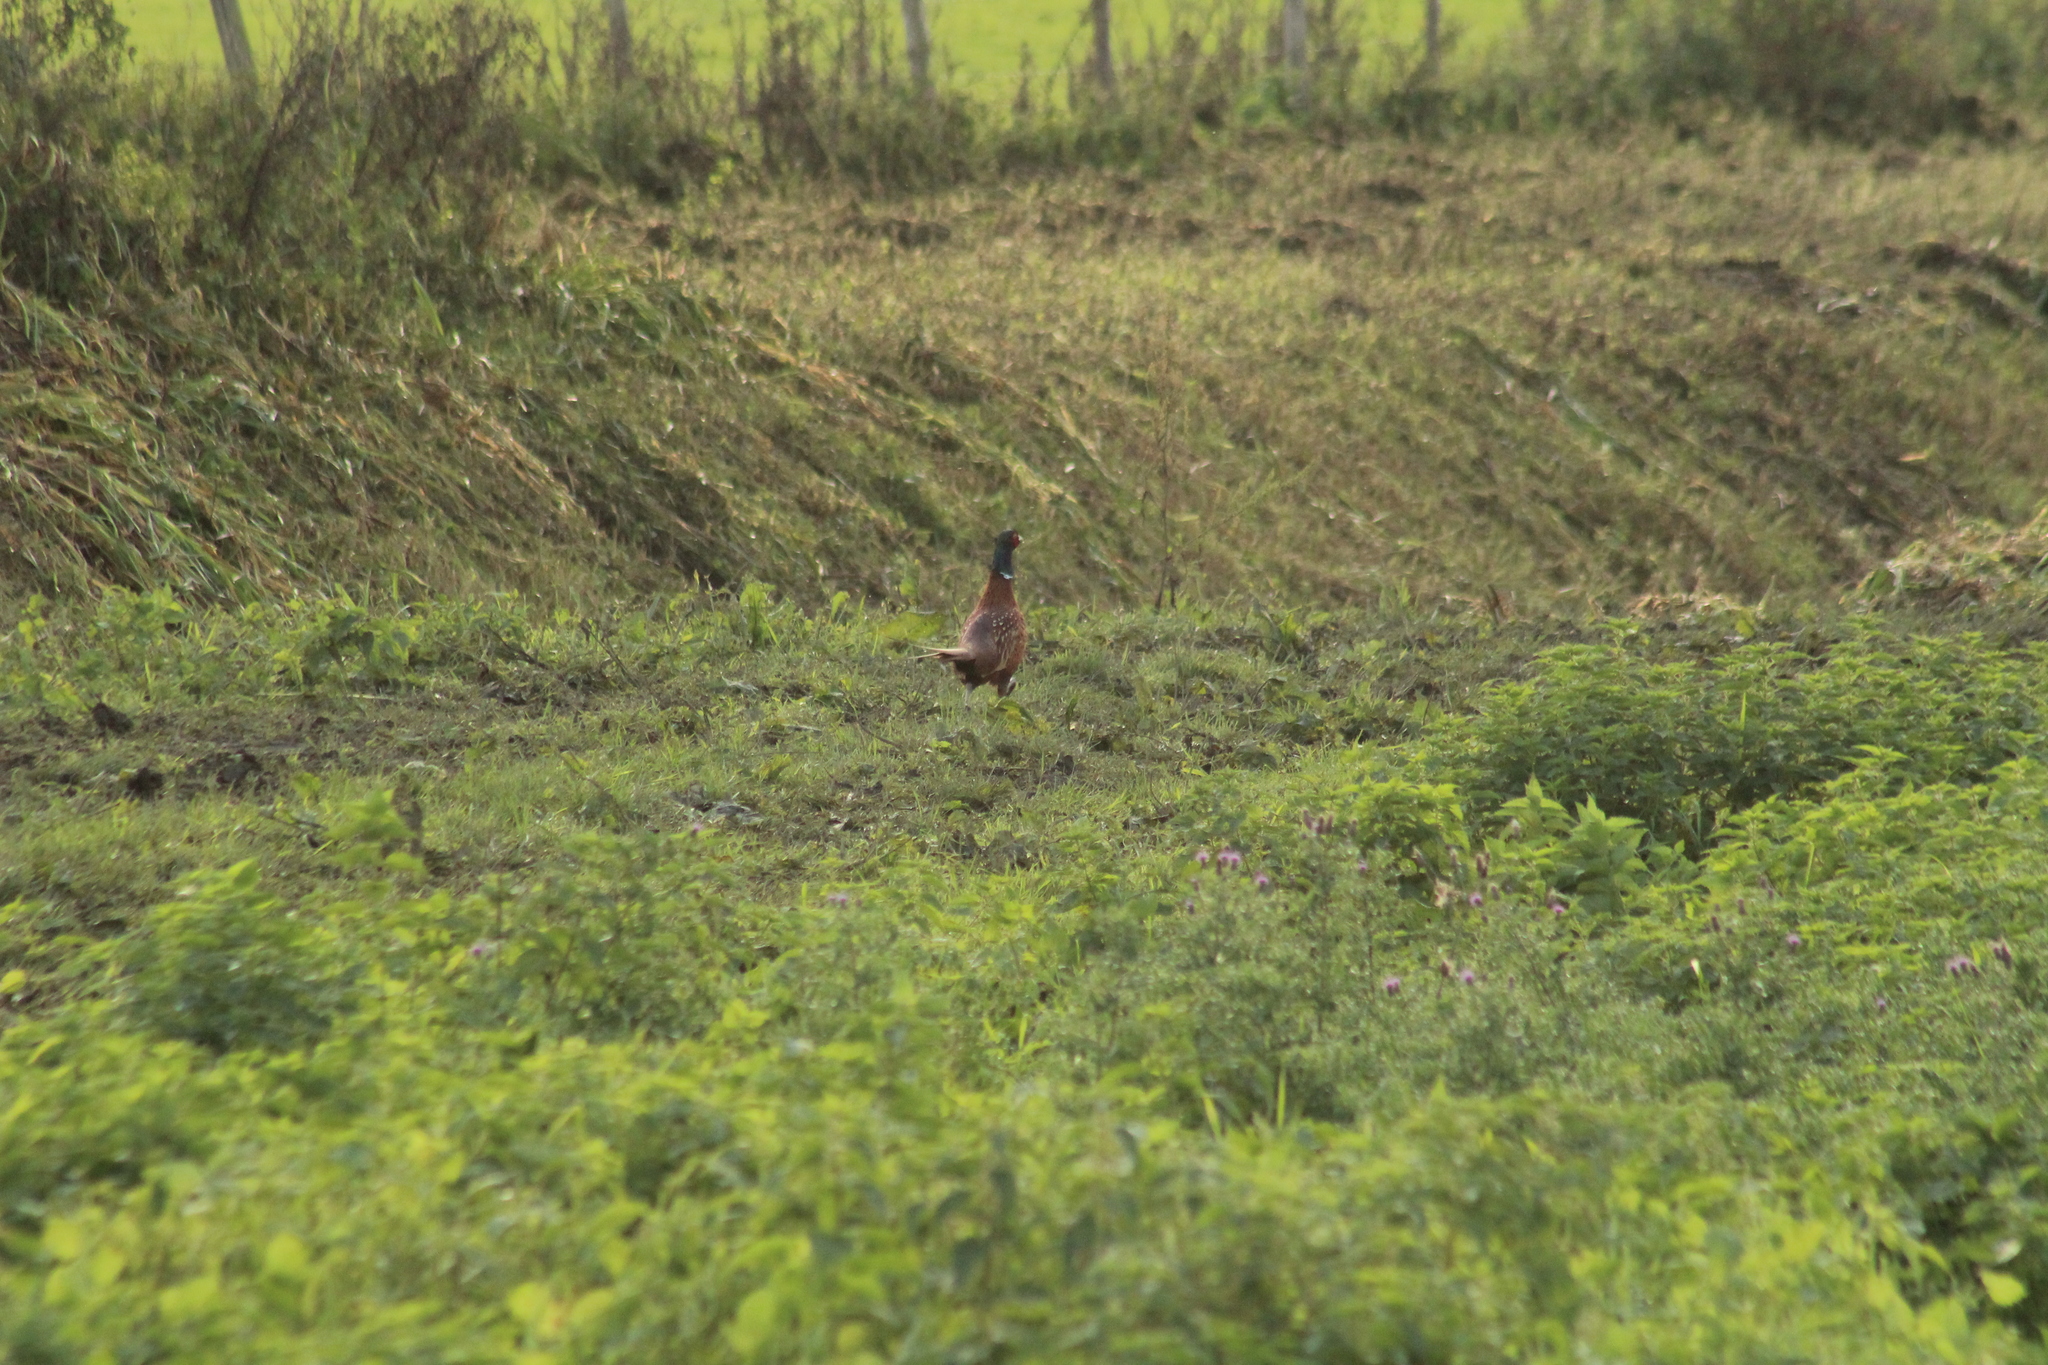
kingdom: Animalia
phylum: Chordata
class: Aves
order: Galliformes
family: Phasianidae
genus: Phasianus
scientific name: Phasianus colchicus
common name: Common pheasant
